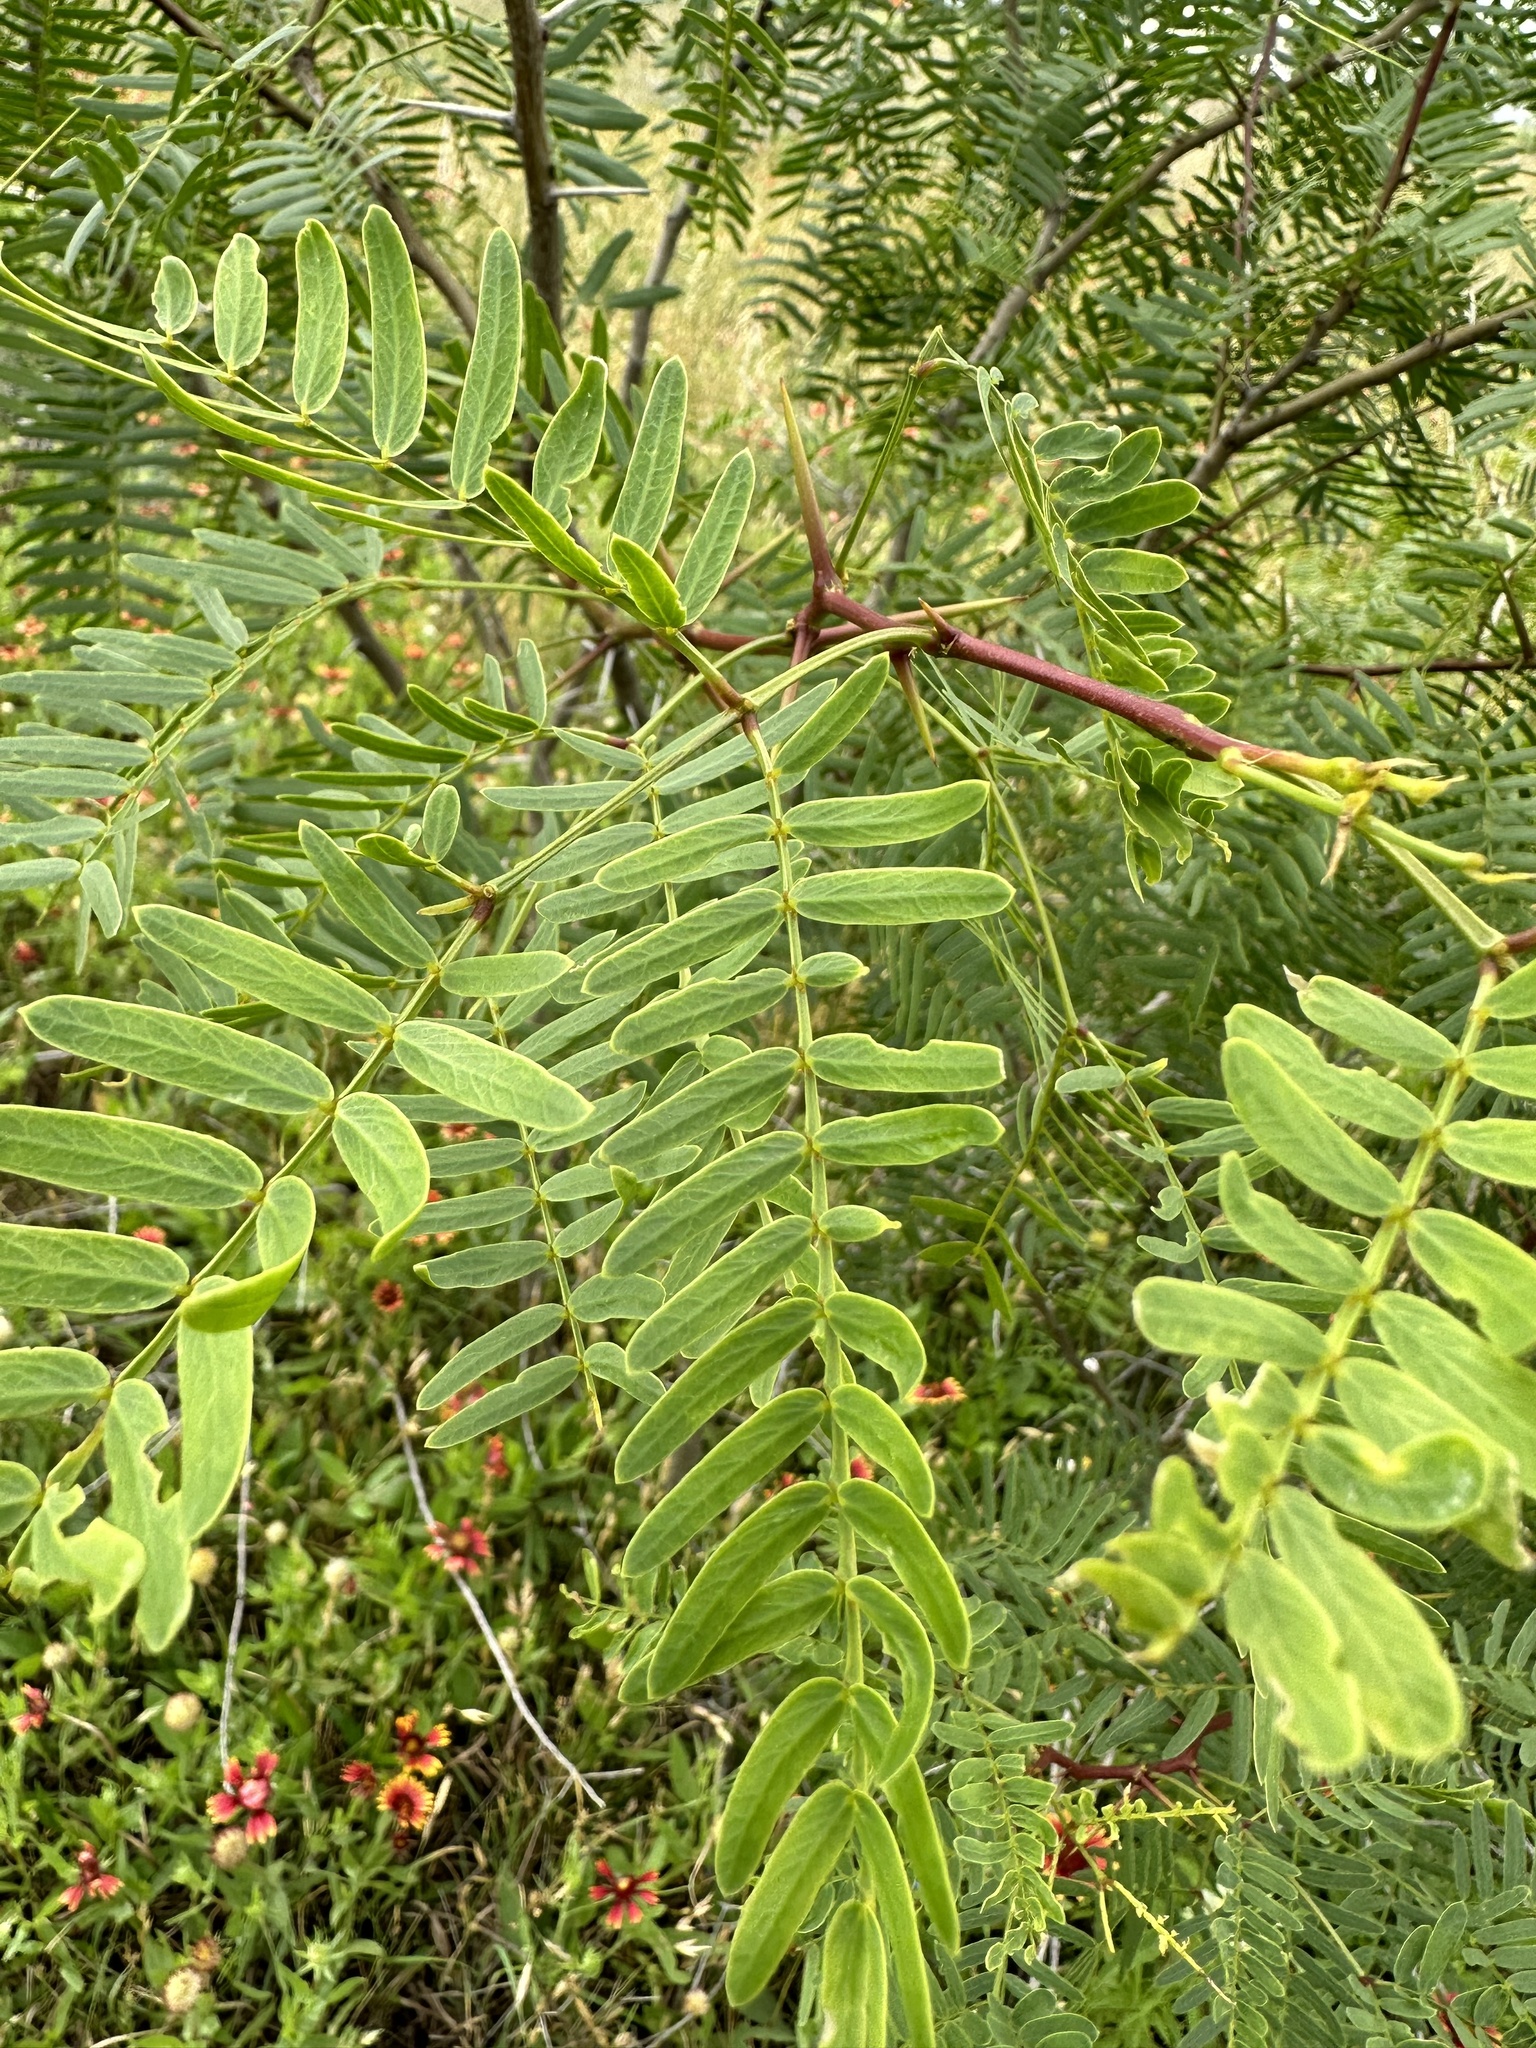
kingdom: Plantae
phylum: Tracheophyta
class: Magnoliopsida
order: Fabales
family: Fabaceae
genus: Prosopis
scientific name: Prosopis glandulosa
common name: Honey mesquite
